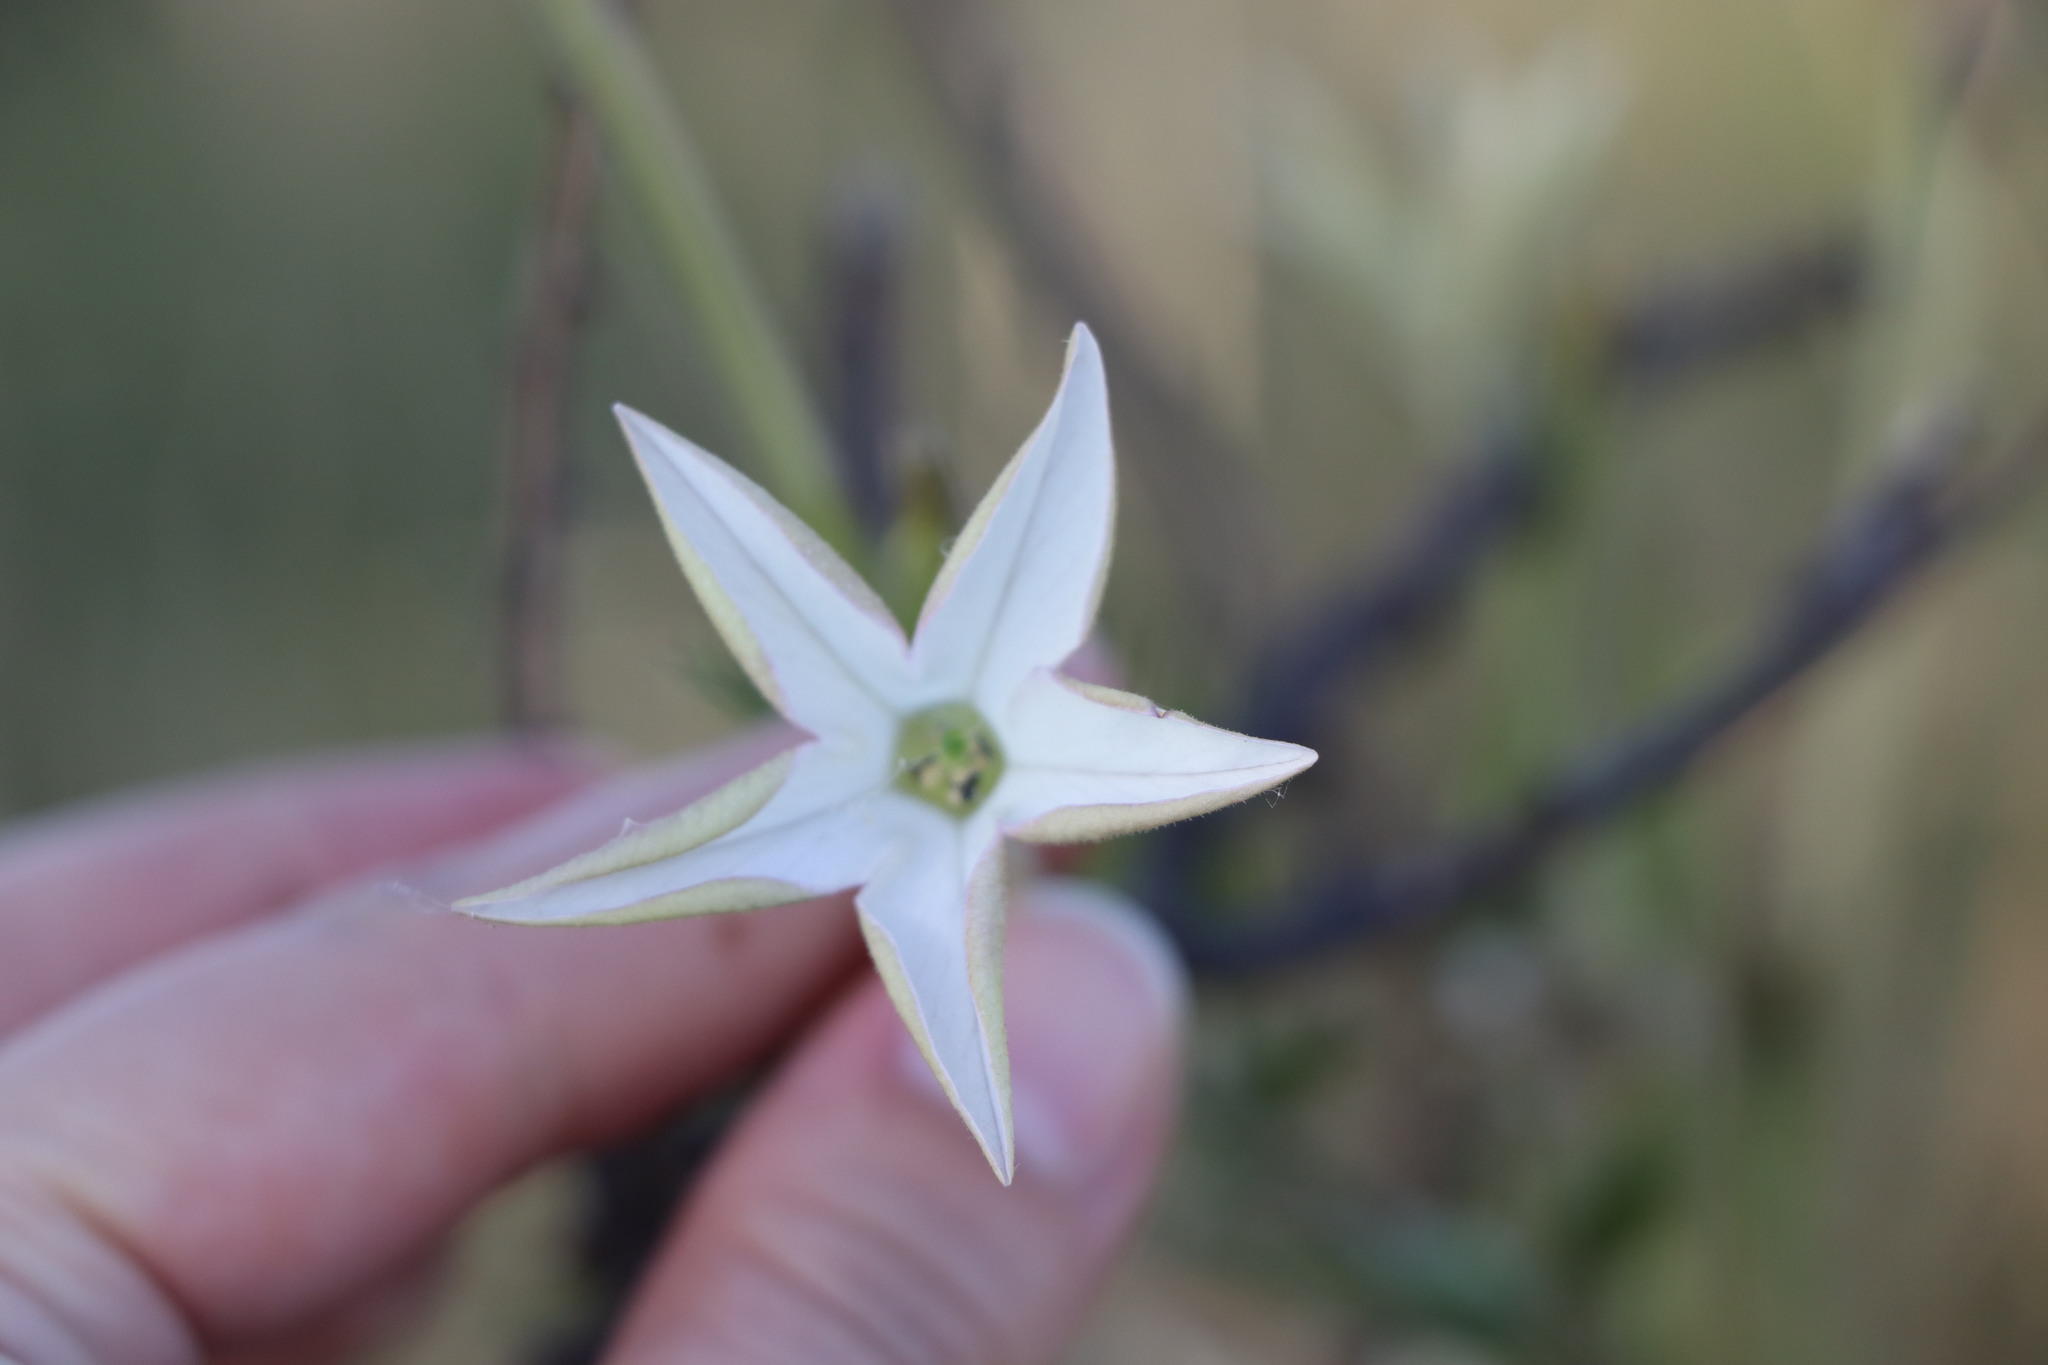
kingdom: Plantae
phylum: Tracheophyta
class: Magnoliopsida
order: Solanales
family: Solanaceae
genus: Nicotiana
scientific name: Nicotiana longiflora
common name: Long-flowered tobacco
